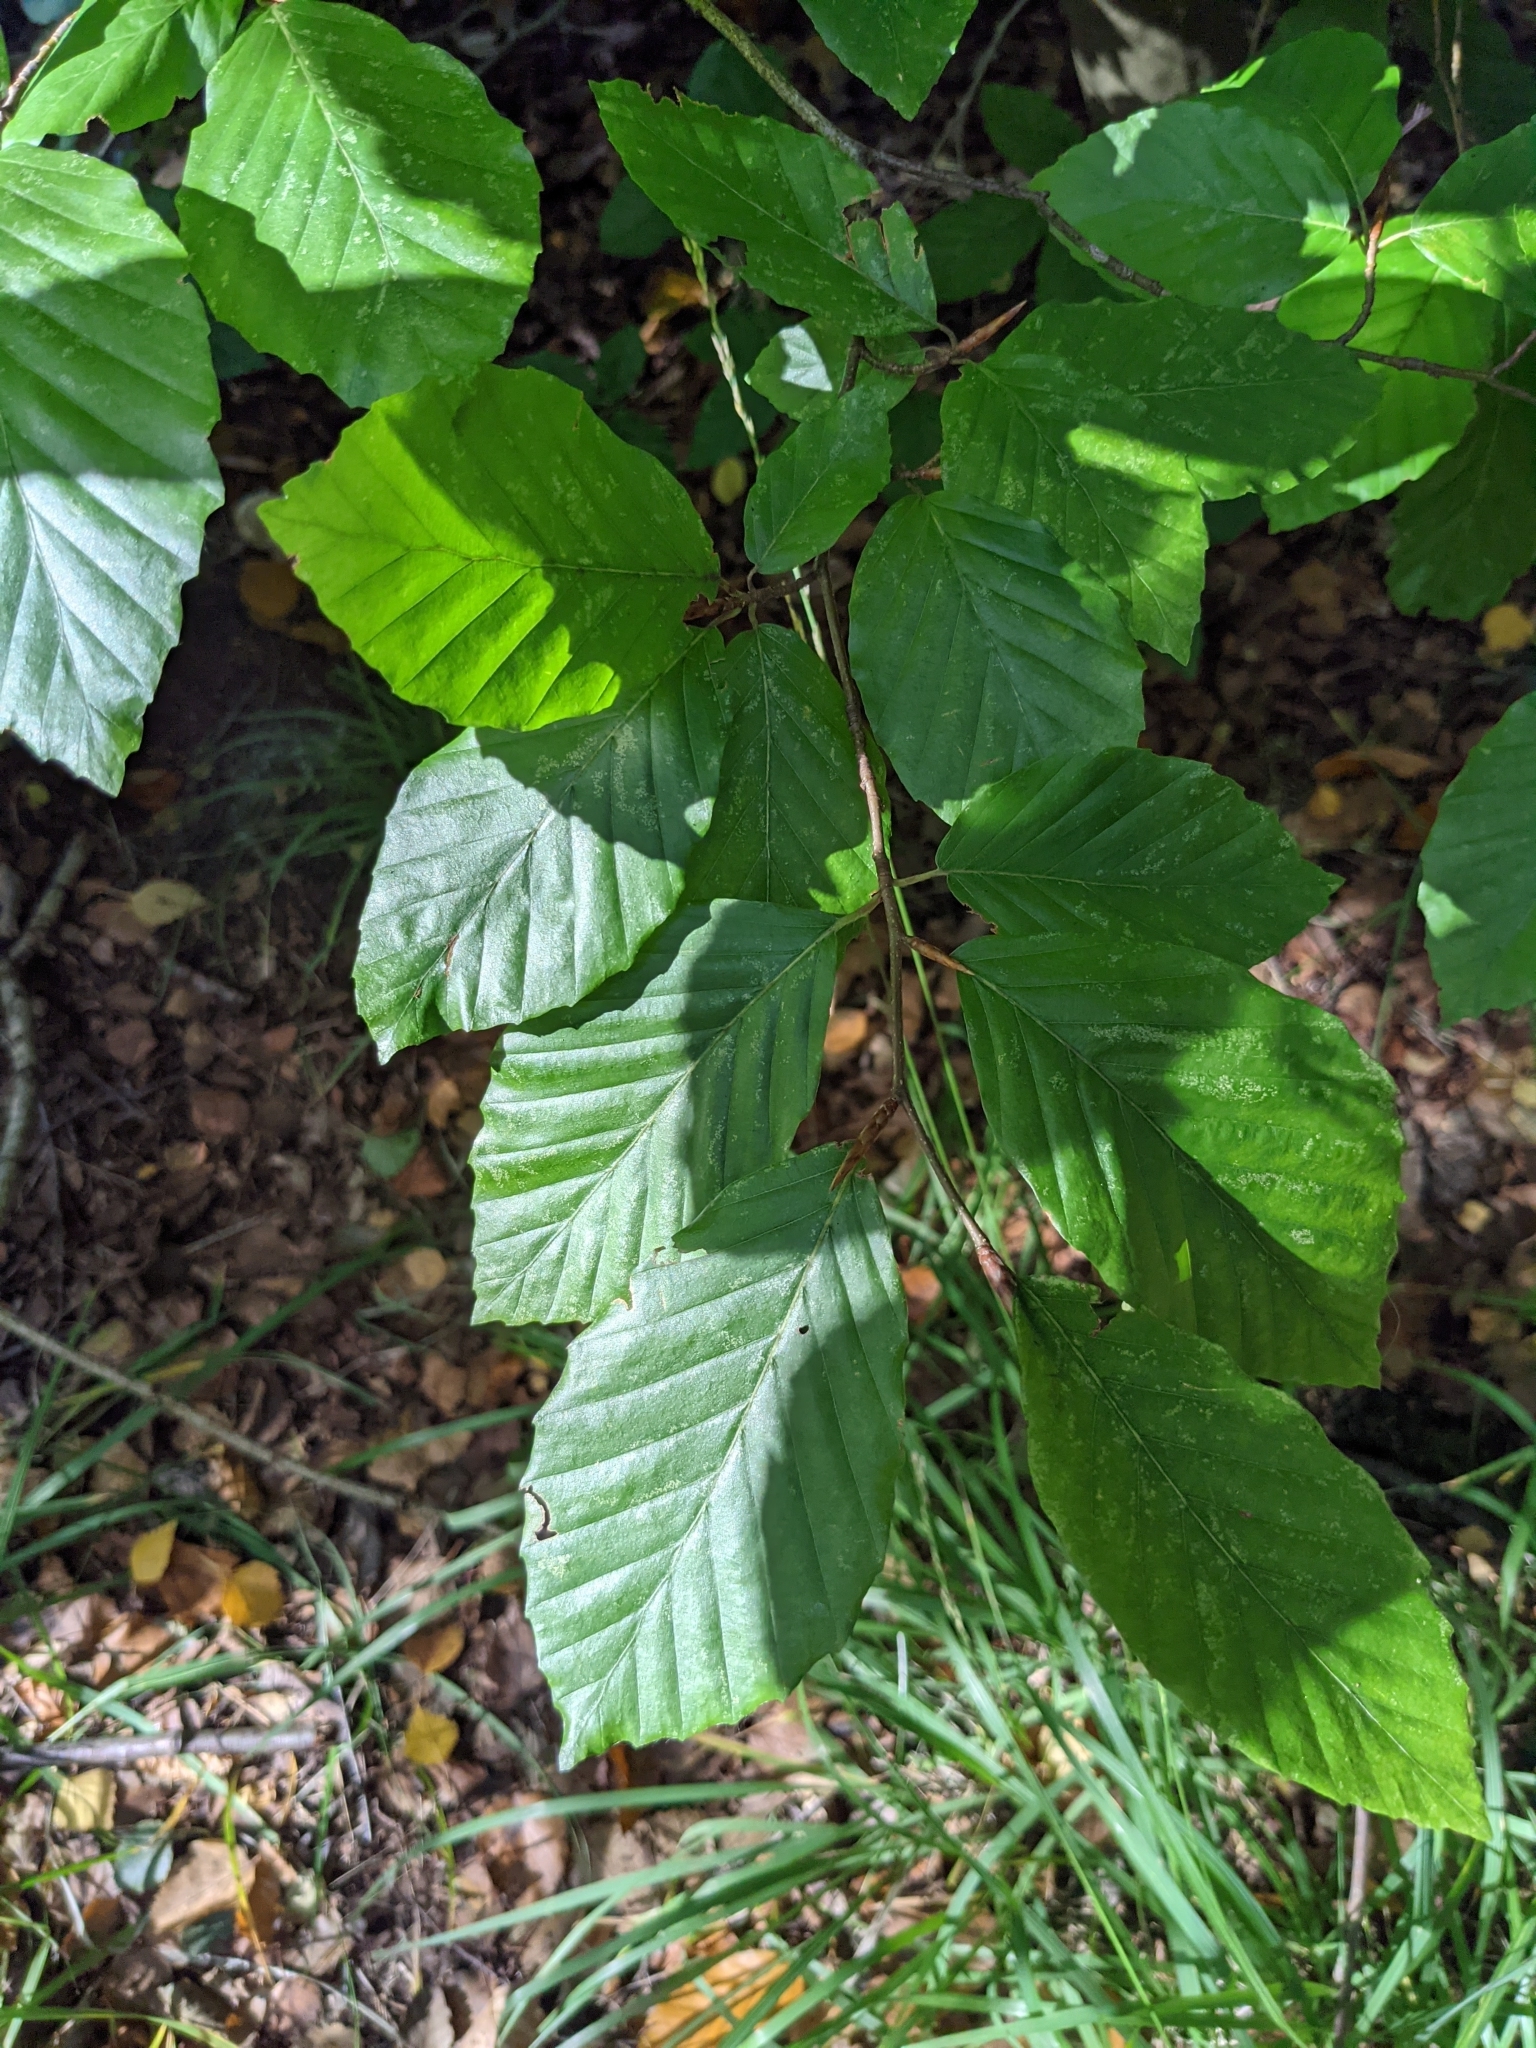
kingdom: Plantae
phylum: Tracheophyta
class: Magnoliopsida
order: Fagales
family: Fagaceae
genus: Fagus
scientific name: Fagus sylvatica
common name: Beech
